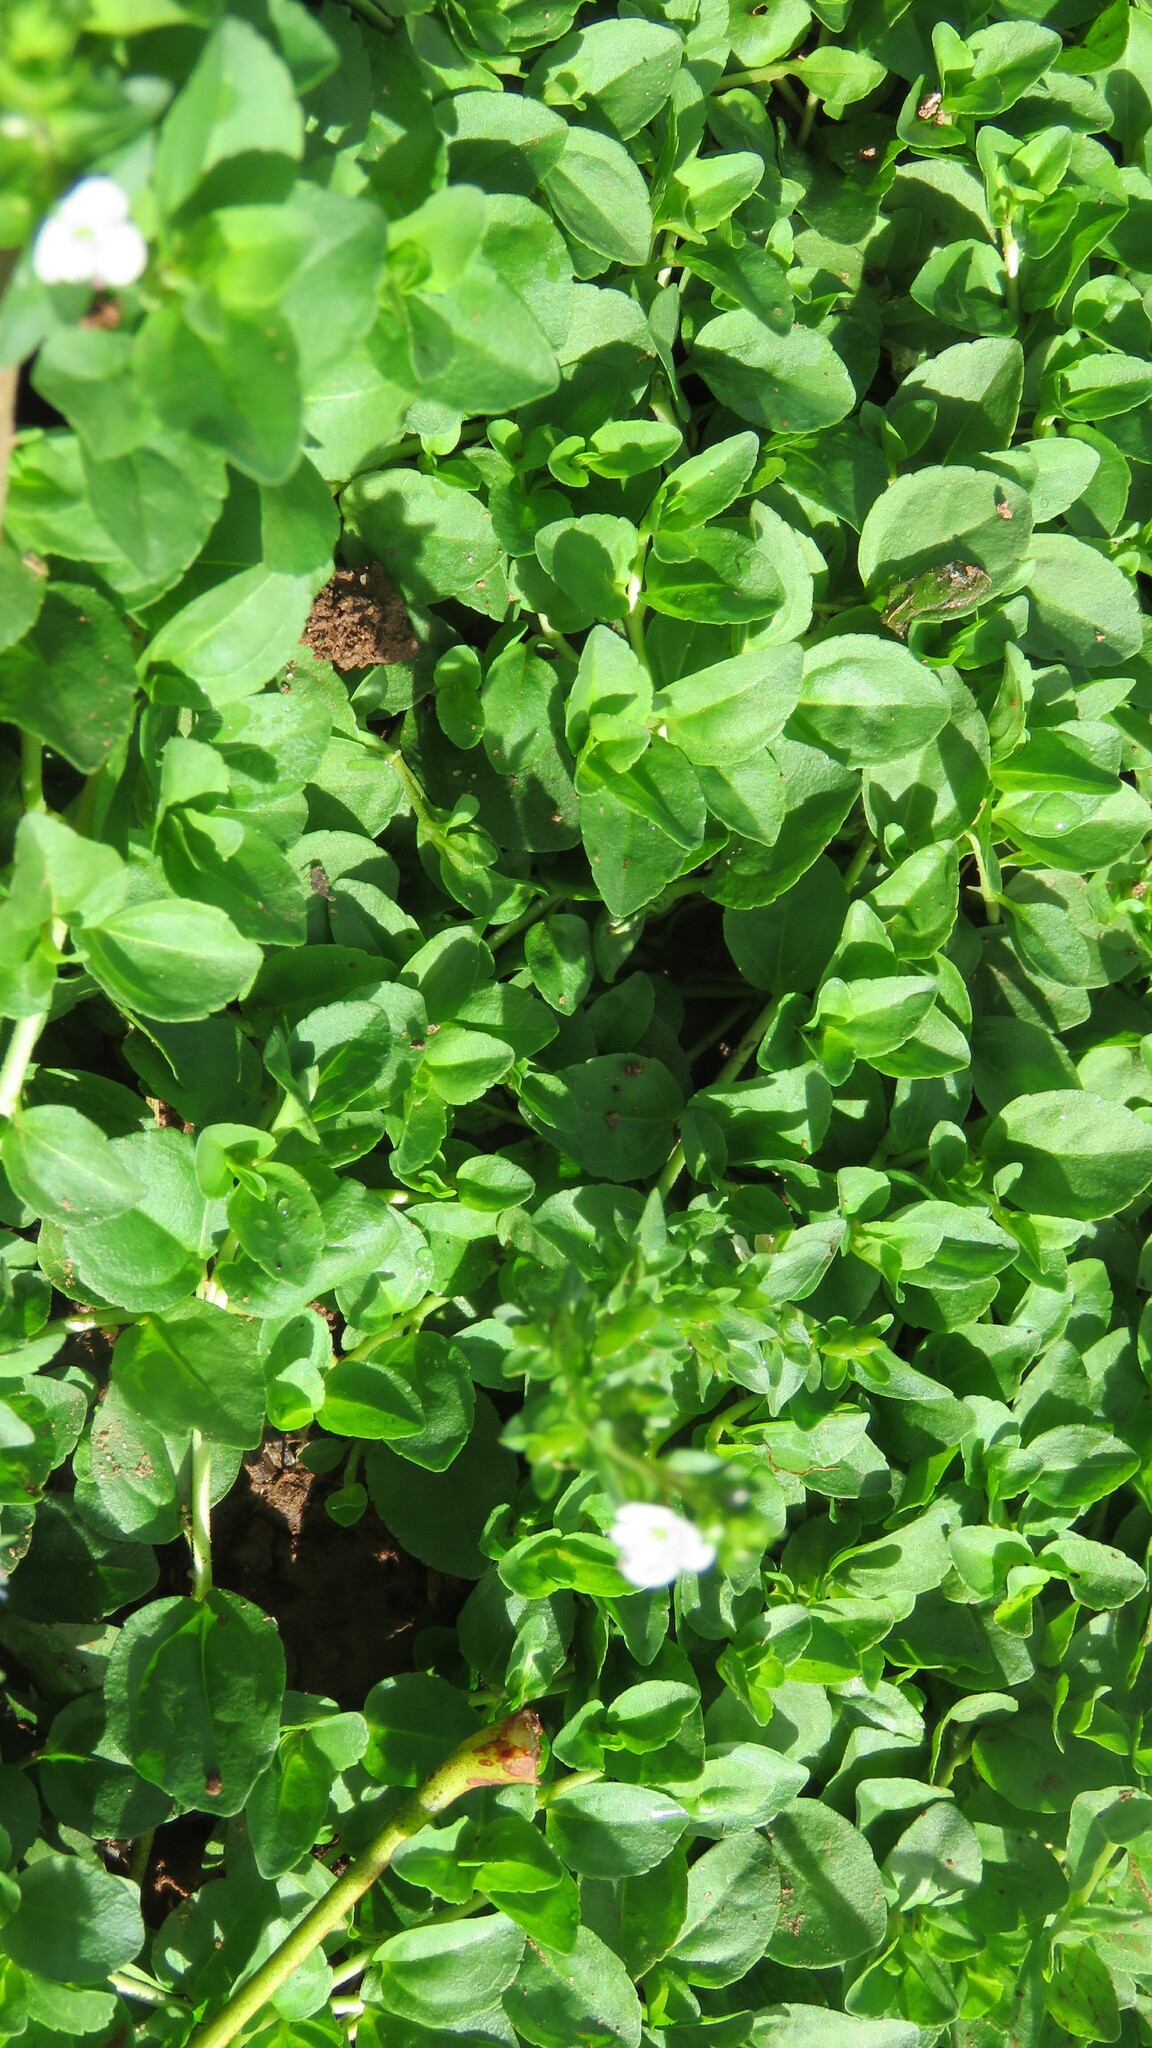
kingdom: Plantae
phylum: Tracheophyta
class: Magnoliopsida
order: Lamiales
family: Plantaginaceae
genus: Veronica
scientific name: Veronica serpyllifolia
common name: Thyme-leaved speedwell
